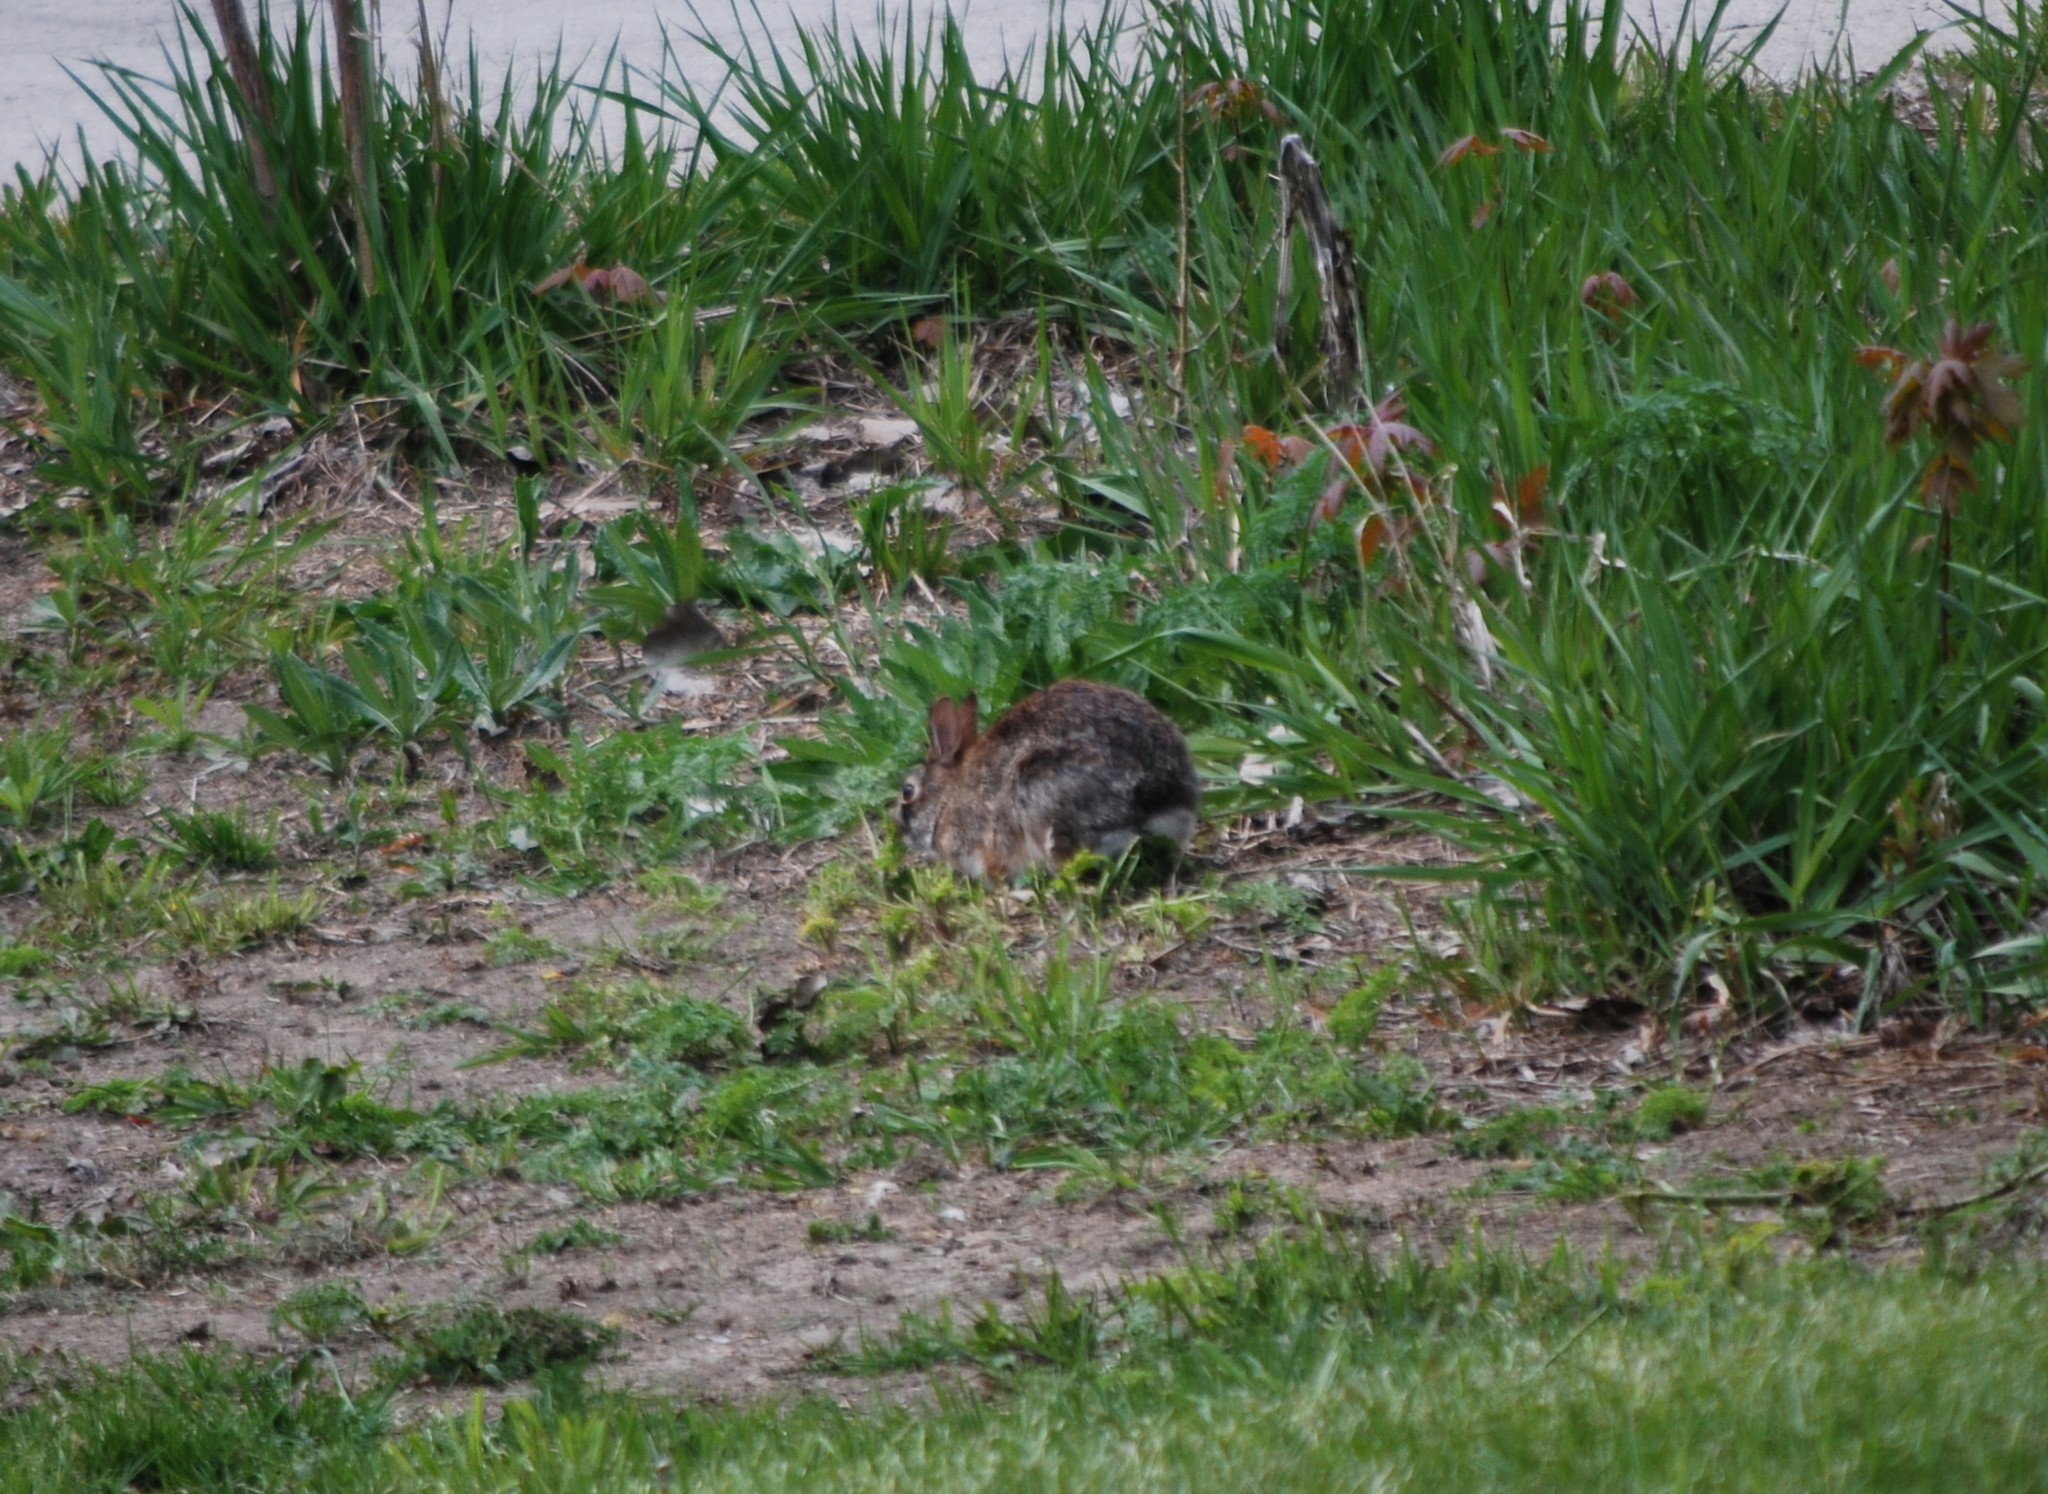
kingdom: Animalia
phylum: Chordata
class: Mammalia
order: Lagomorpha
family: Leporidae
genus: Sylvilagus
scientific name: Sylvilagus floridanus
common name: Eastern cottontail
